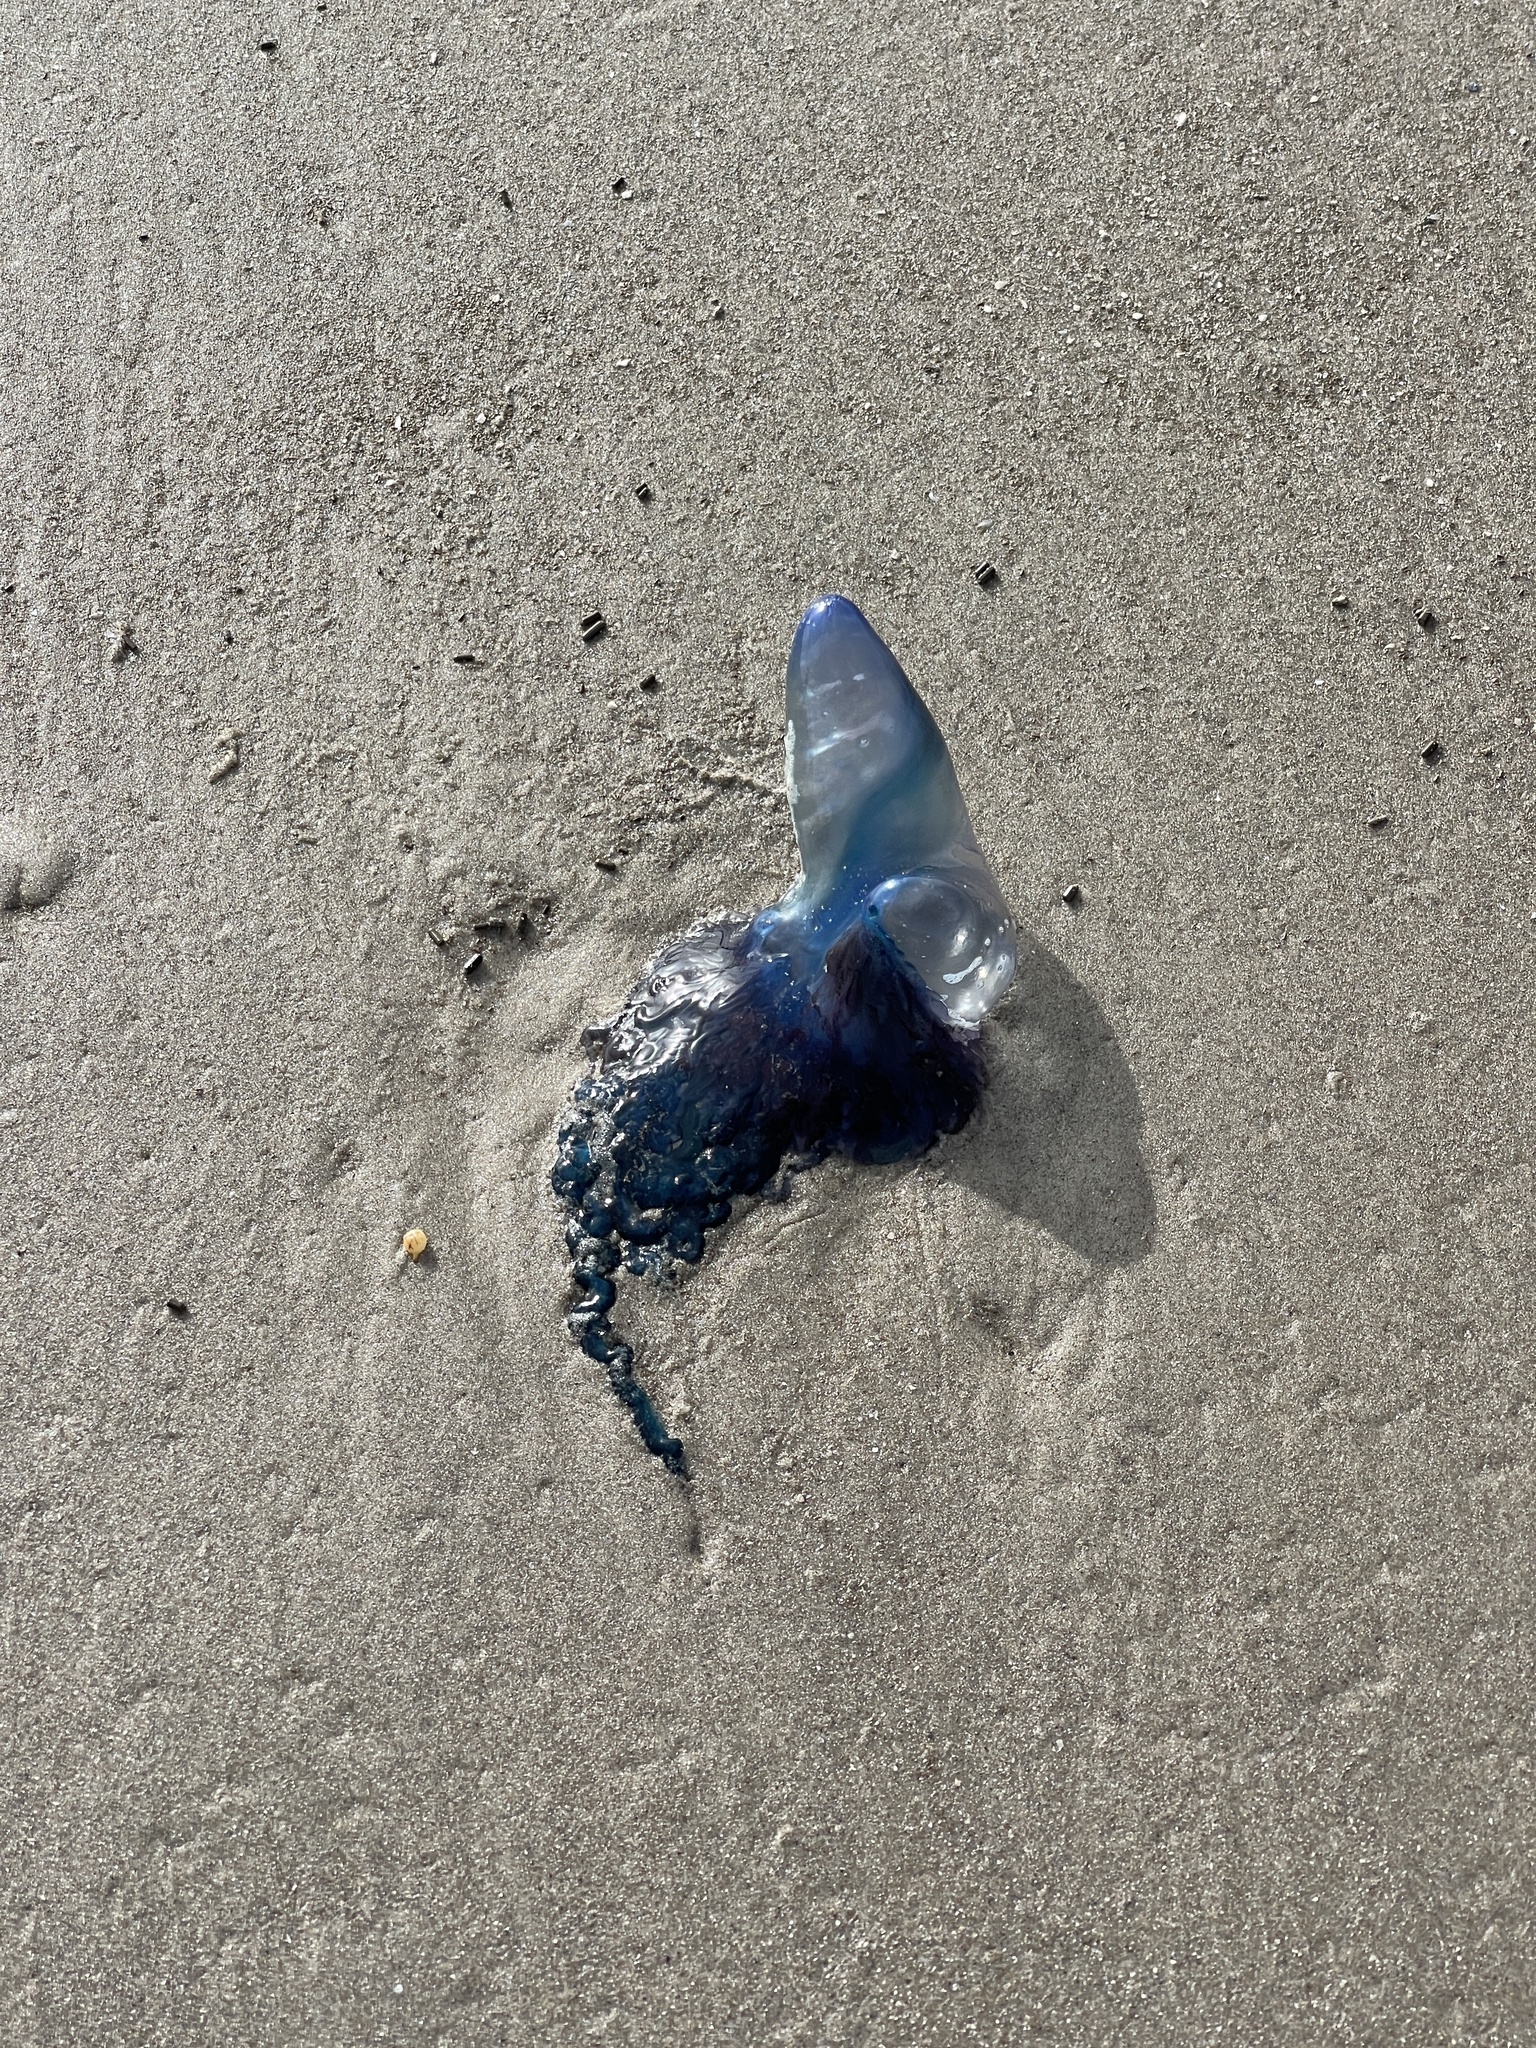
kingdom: Animalia
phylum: Cnidaria
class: Hydrozoa
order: Siphonophorae
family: Physaliidae
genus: Physalia
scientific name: Physalia physalis
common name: Portuguese man-of-war
